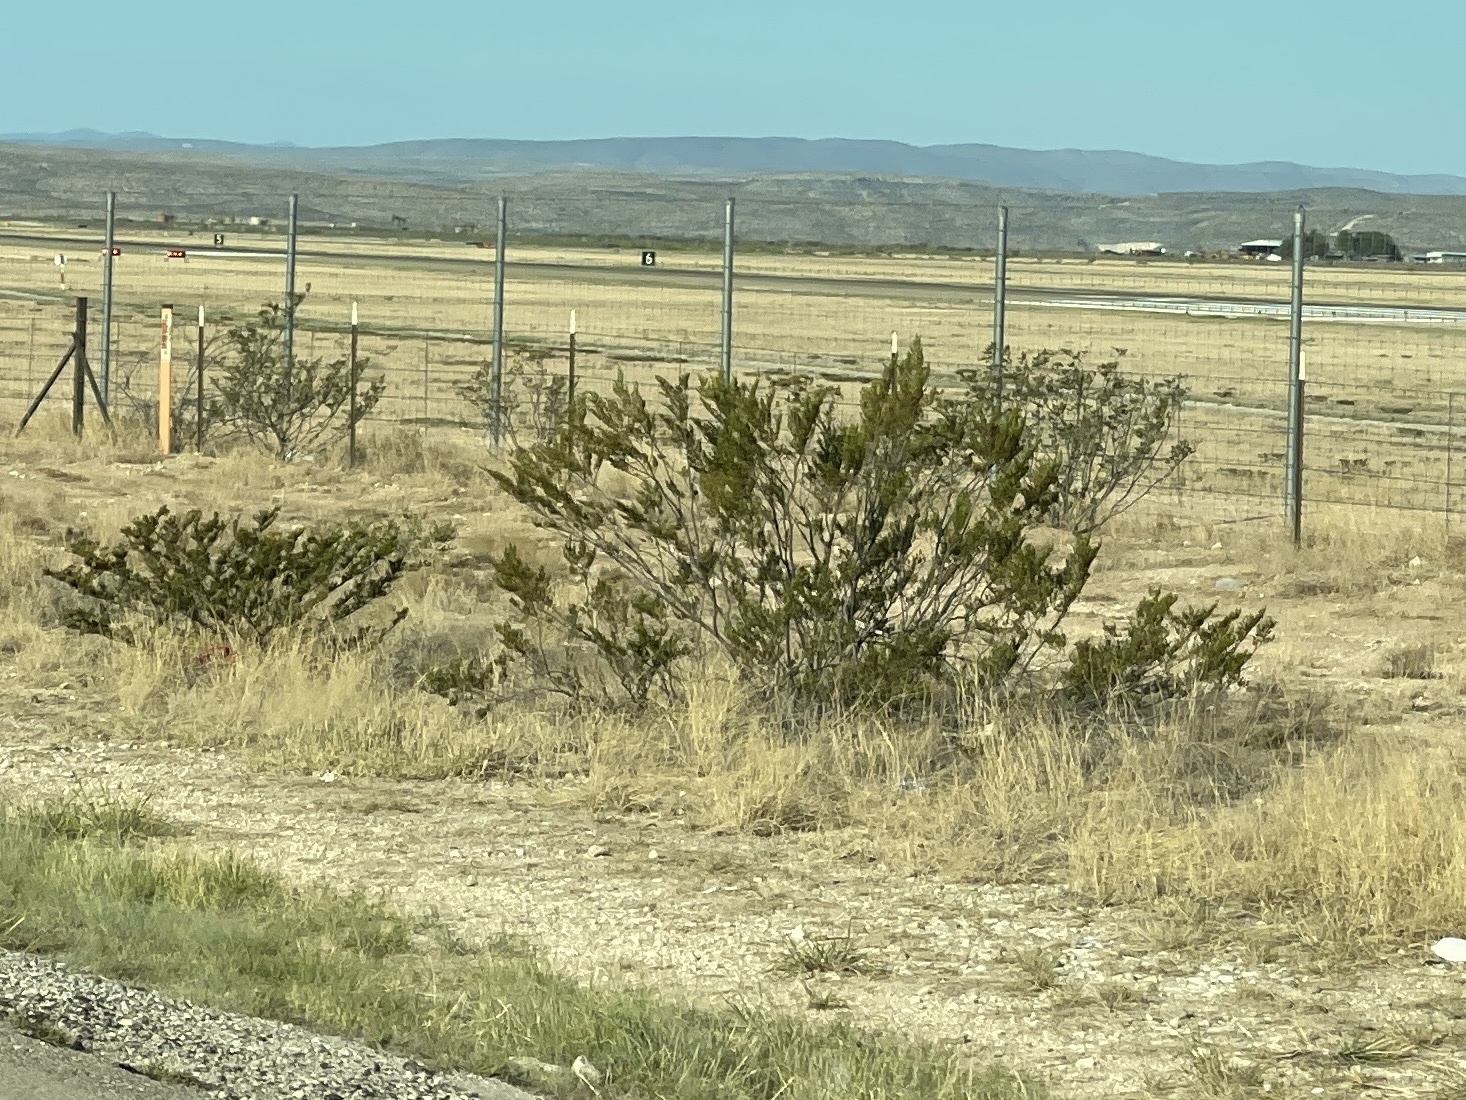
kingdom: Plantae
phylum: Tracheophyta
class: Magnoliopsida
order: Zygophyllales
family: Zygophyllaceae
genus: Larrea
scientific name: Larrea tridentata
